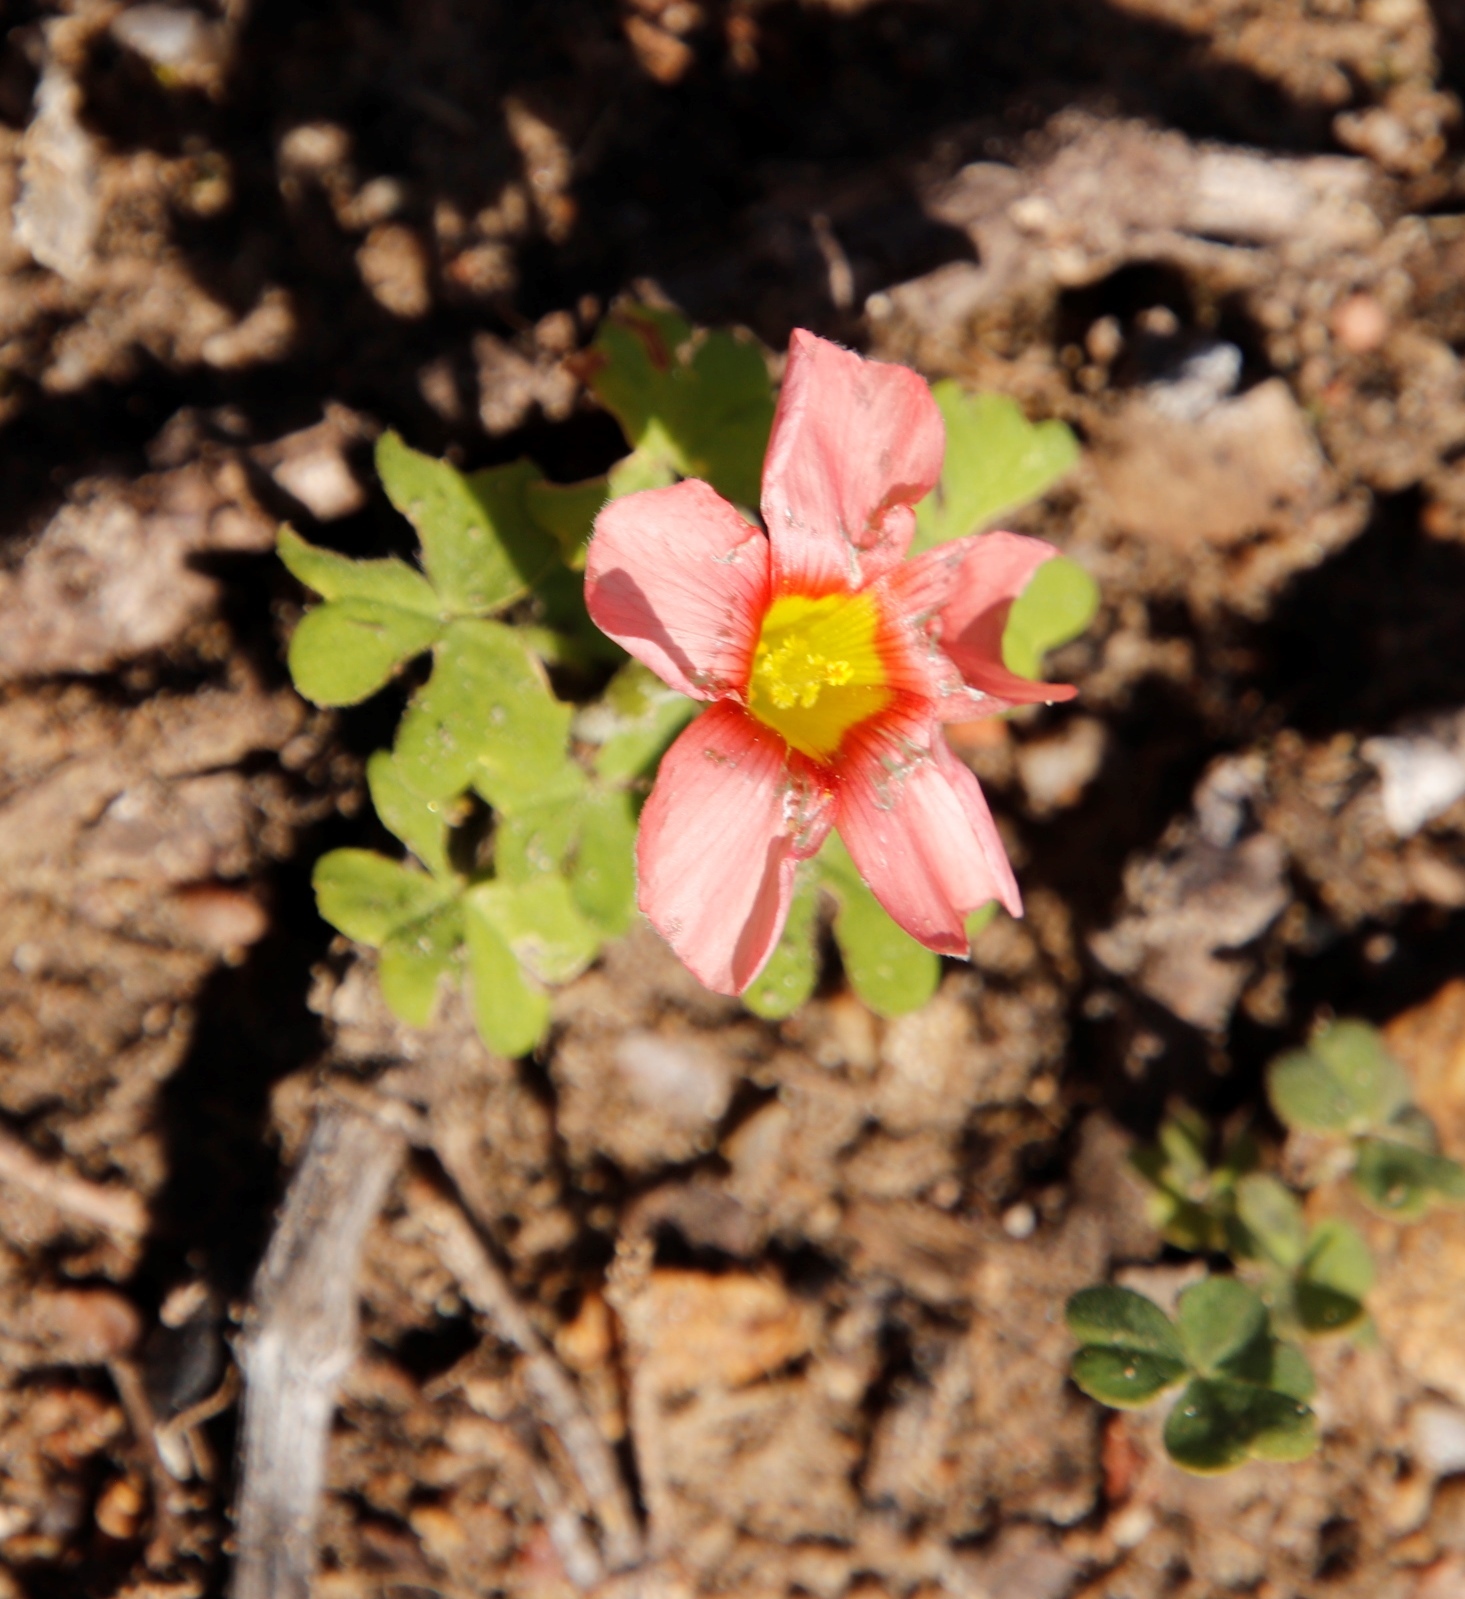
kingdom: Plantae
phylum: Tracheophyta
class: Magnoliopsida
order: Oxalidales
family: Oxalidaceae
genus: Oxalis
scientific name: Oxalis obtusa
